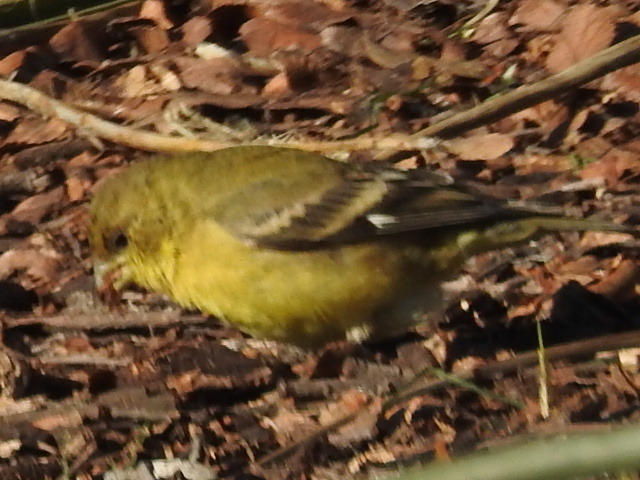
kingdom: Animalia
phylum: Chordata
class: Aves
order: Passeriformes
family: Fringillidae
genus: Spinus
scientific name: Spinus psaltria
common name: Lesser goldfinch
